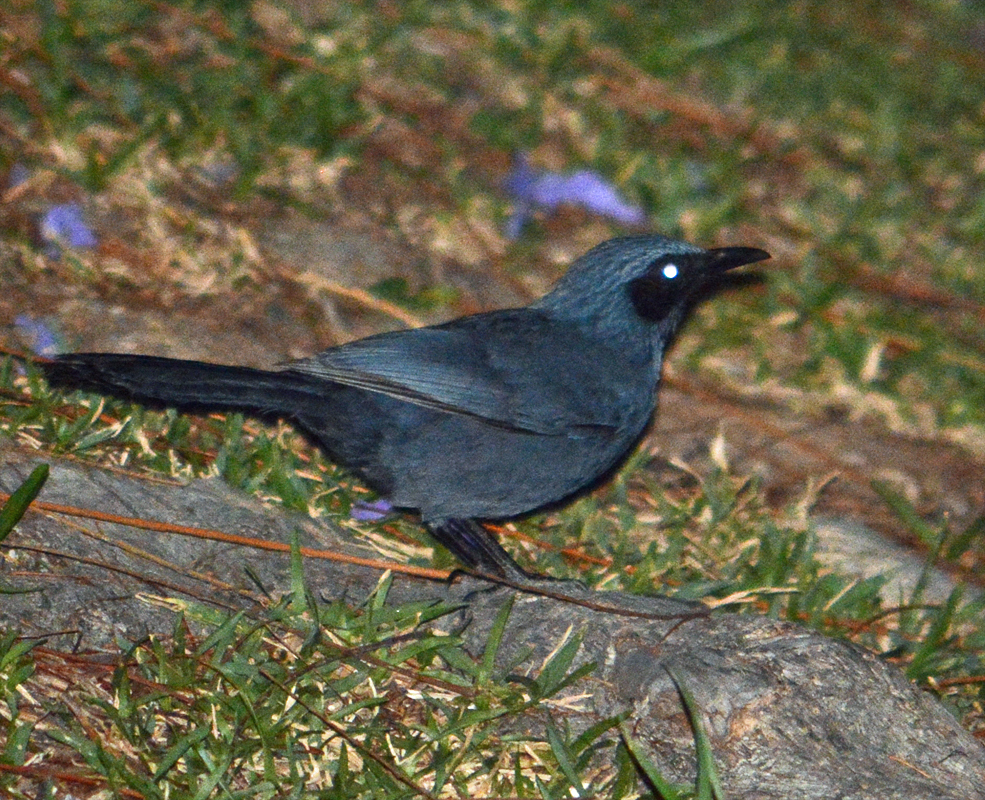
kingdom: Animalia
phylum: Chordata
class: Aves
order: Passeriformes
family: Mimidae
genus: Melanotis
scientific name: Melanotis caerulescens
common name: Blue mockingbird
